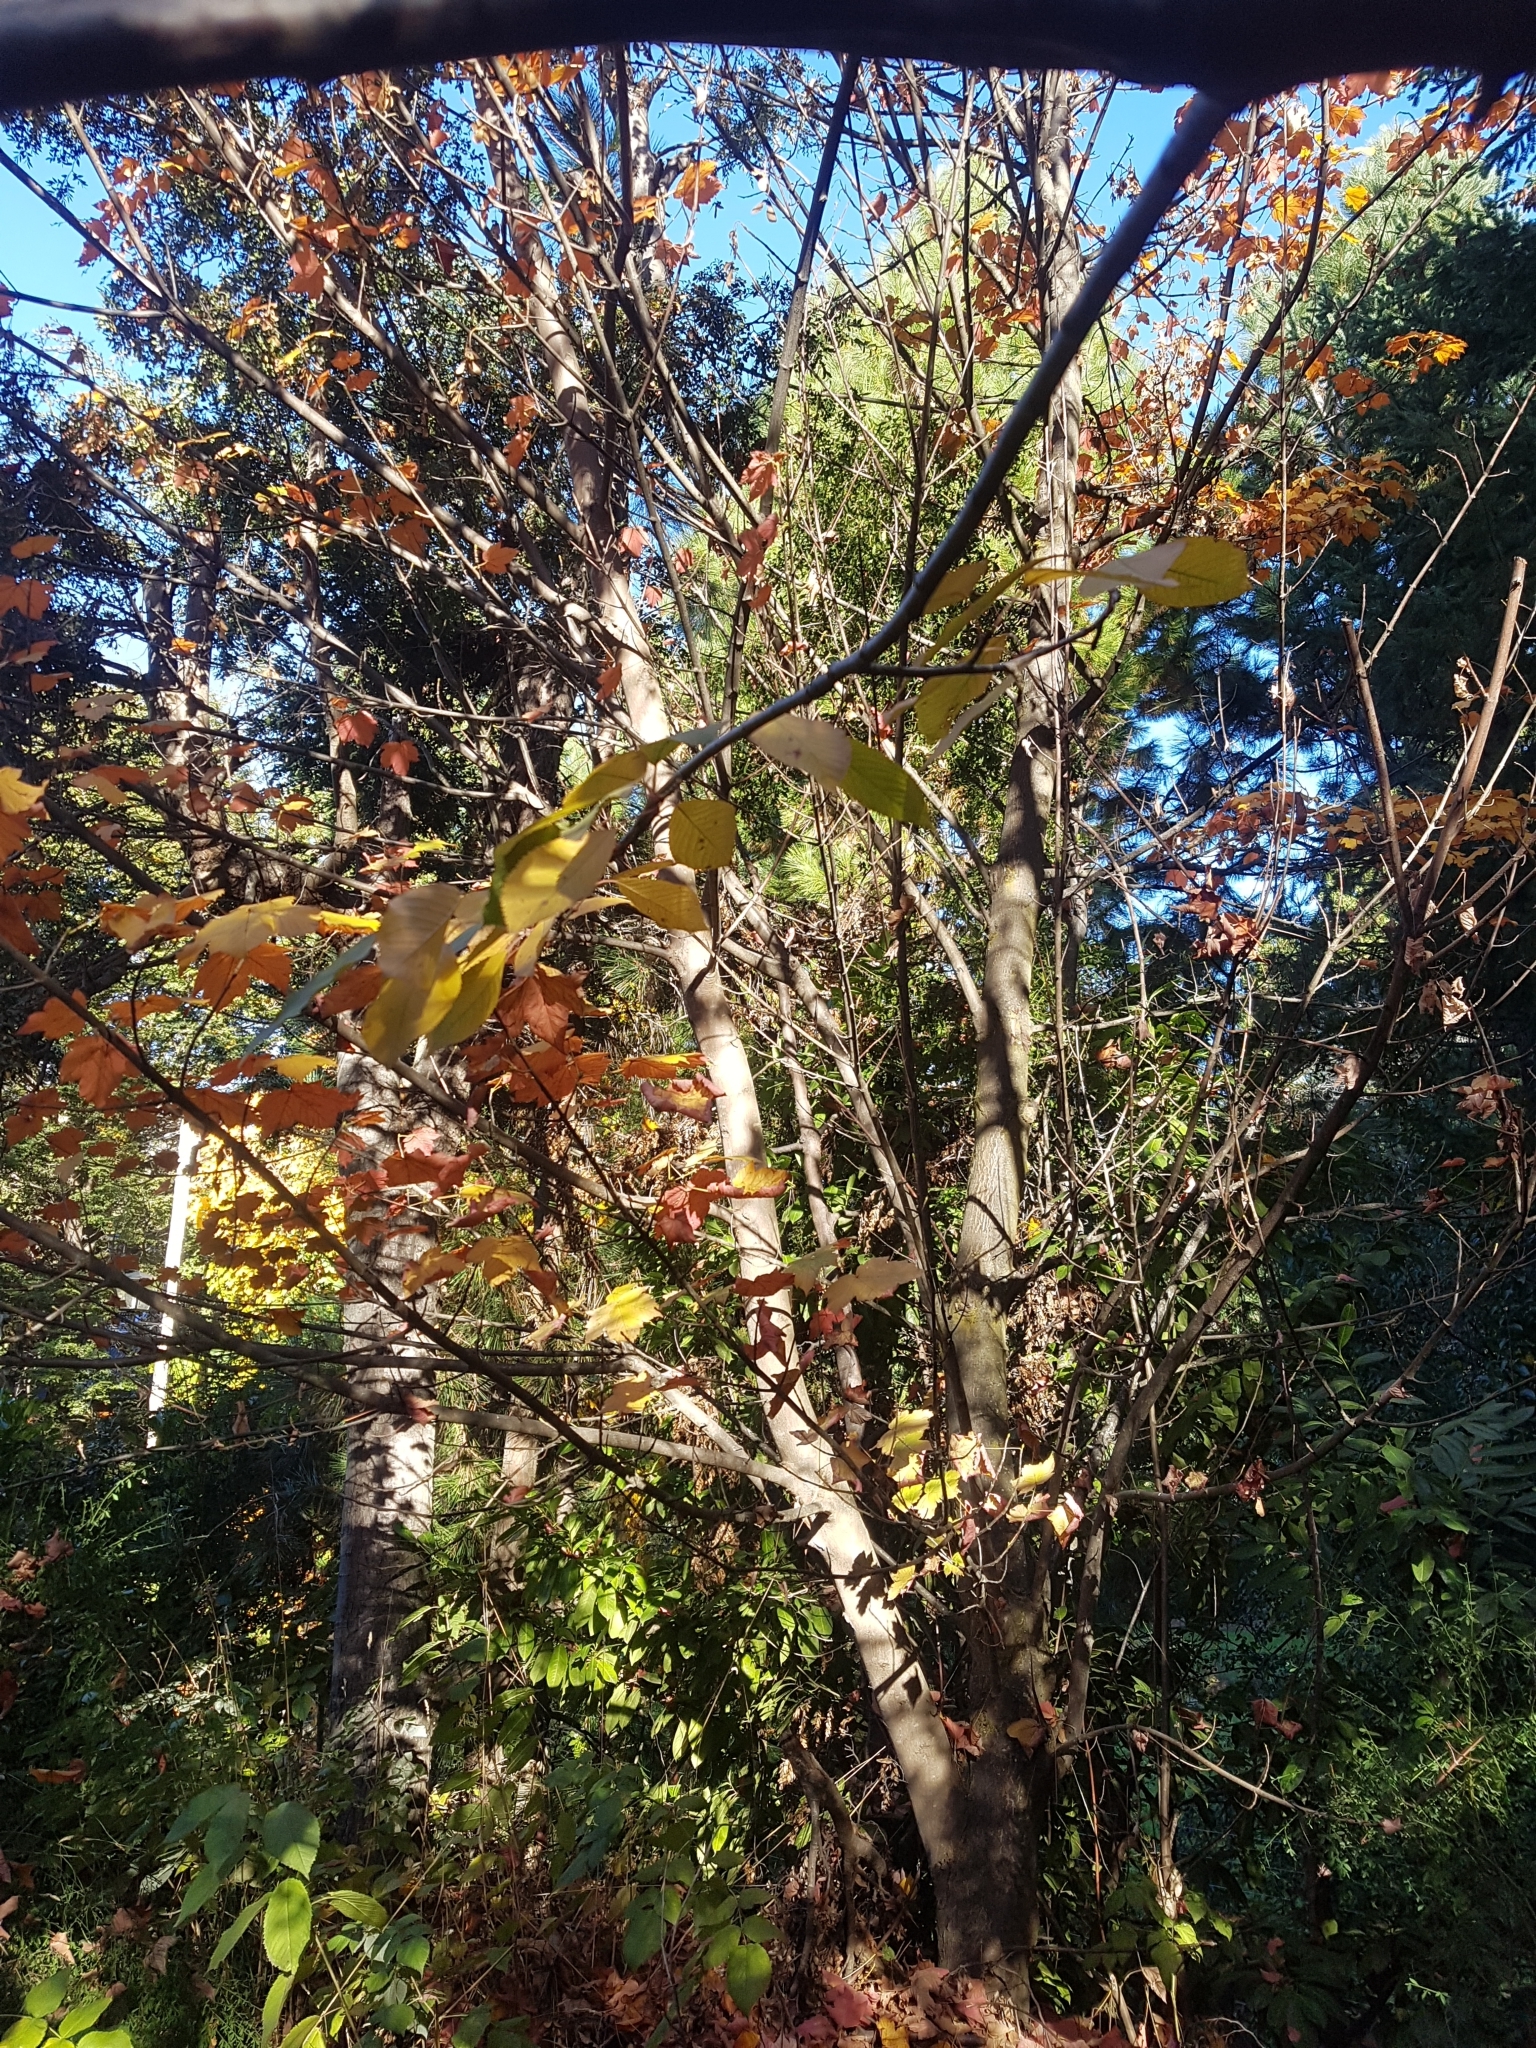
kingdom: Plantae
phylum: Tracheophyta
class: Magnoliopsida
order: Sapindales
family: Sapindaceae
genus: Acer
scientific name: Acer pseudoplatanus
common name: Sycamore
